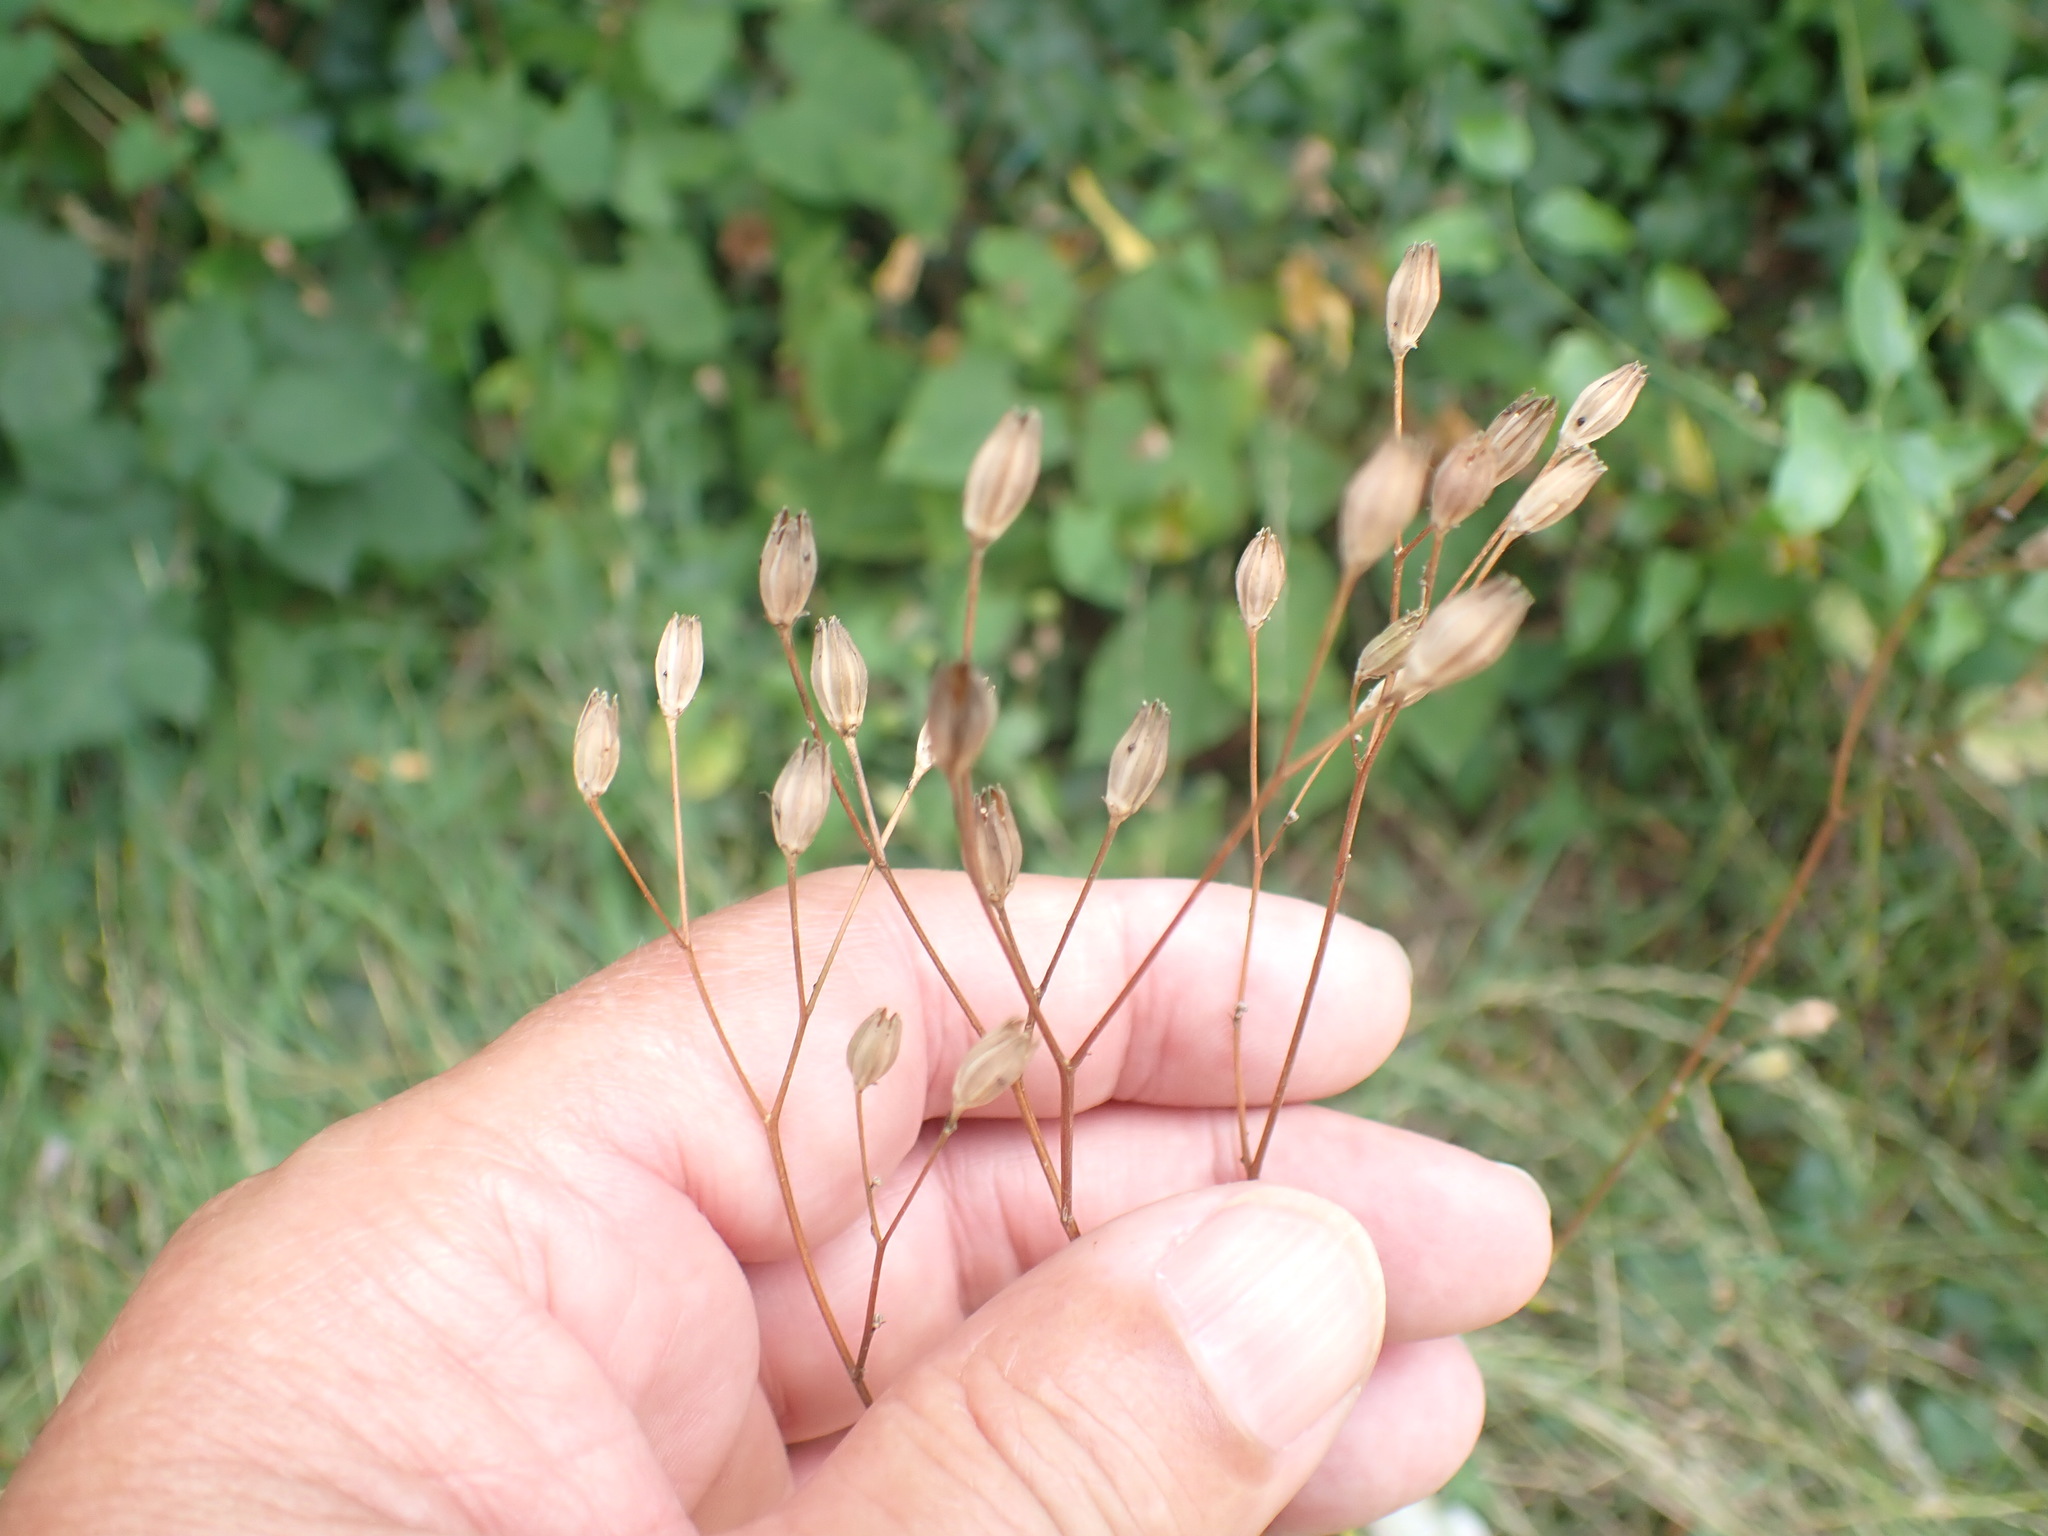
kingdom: Plantae
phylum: Tracheophyta
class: Magnoliopsida
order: Asterales
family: Asteraceae
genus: Lapsana
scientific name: Lapsana communis
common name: Nipplewort
